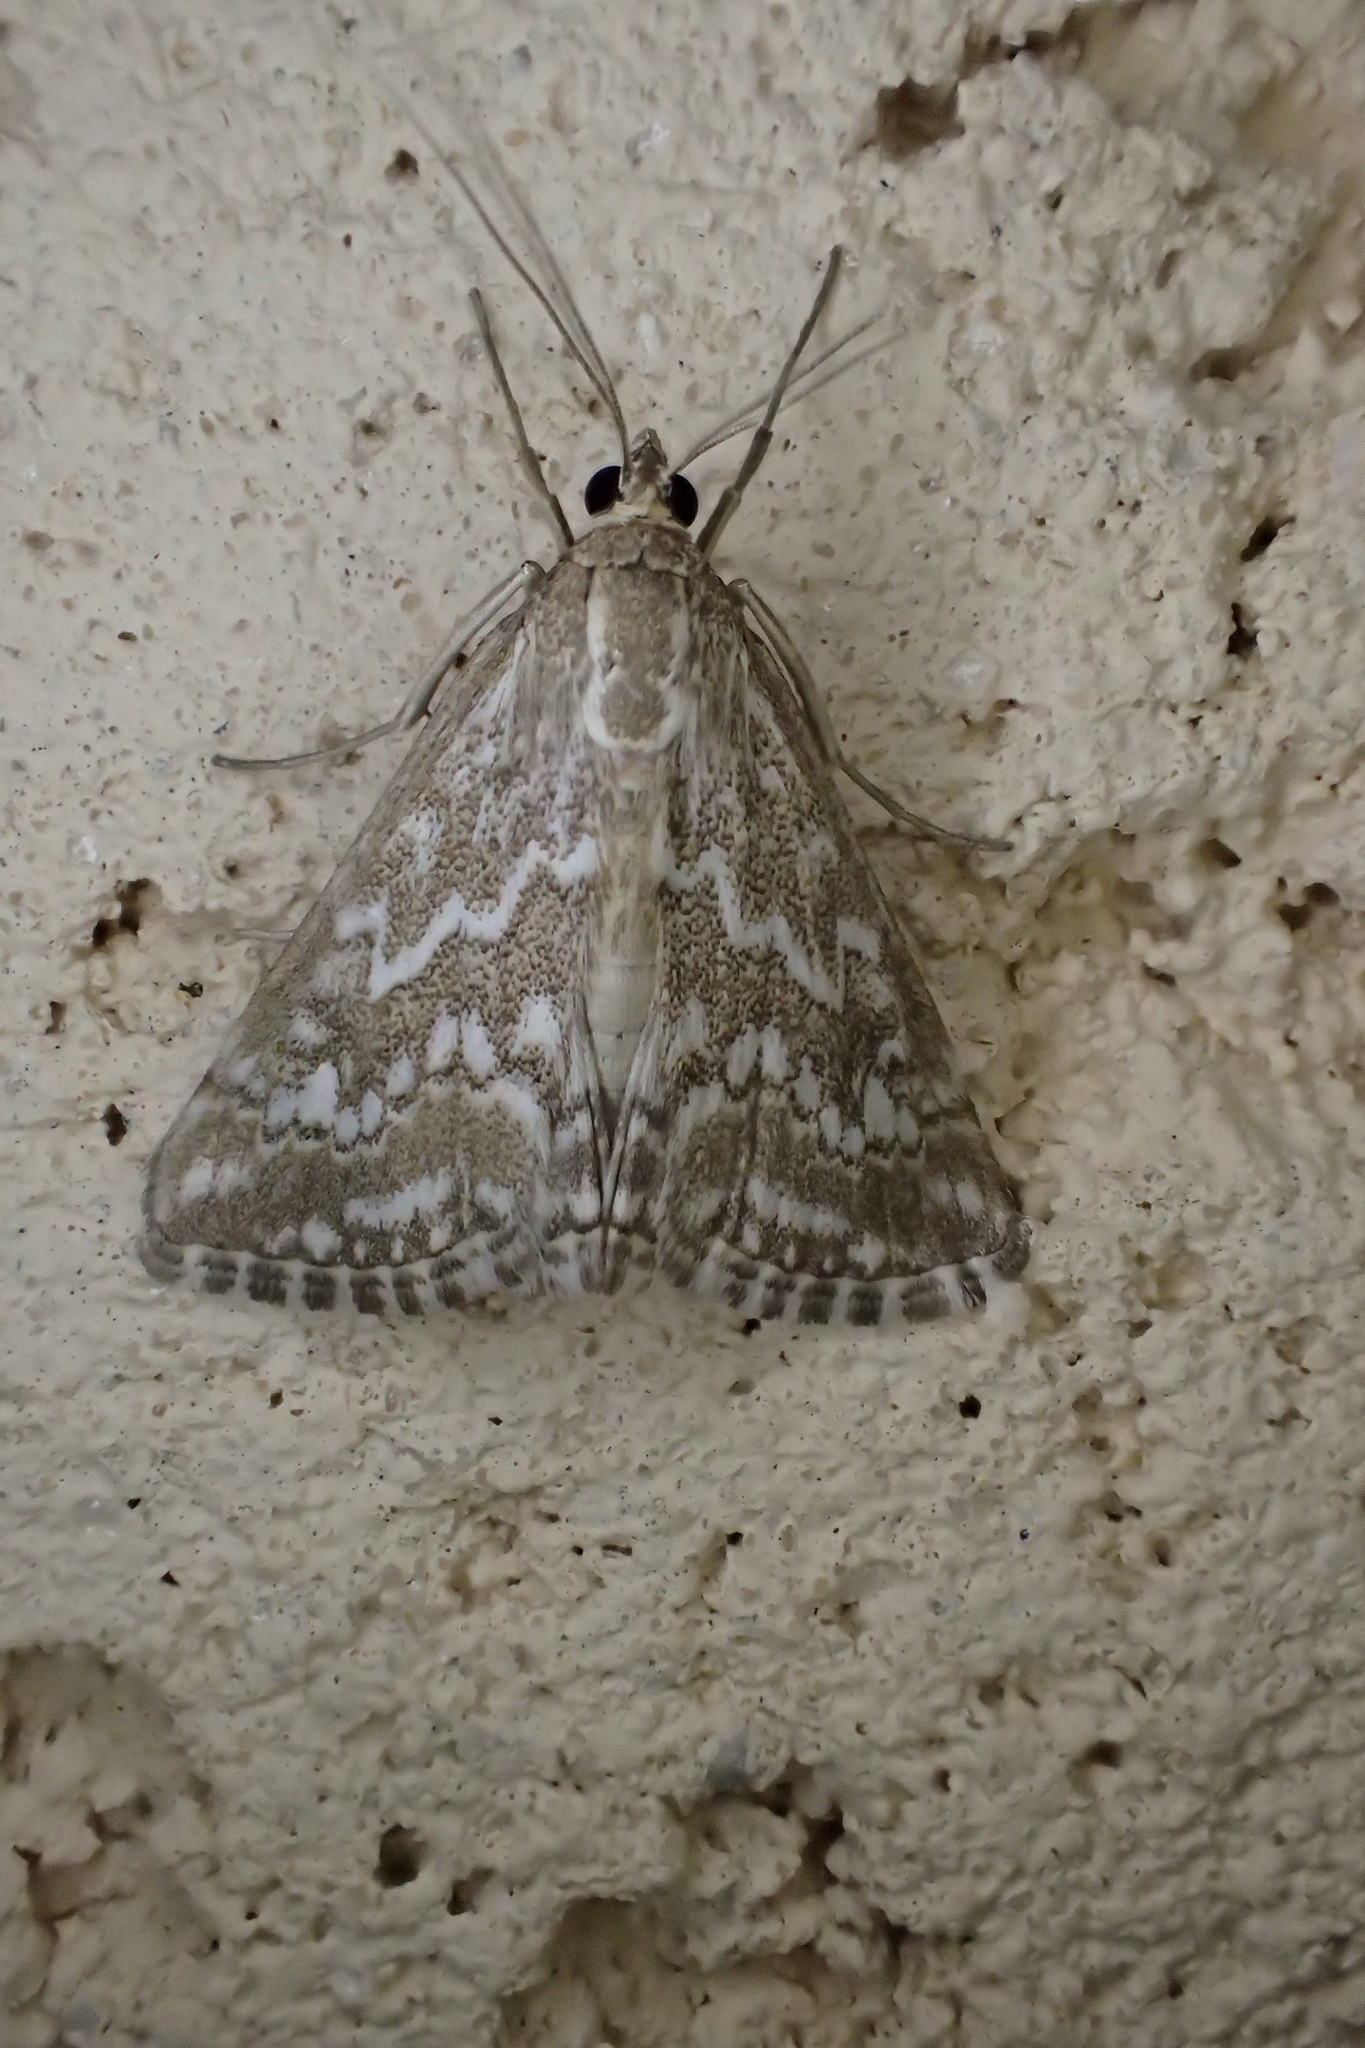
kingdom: Animalia
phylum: Arthropoda
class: Insecta
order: Lepidoptera
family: Crambidae
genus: Evergestis
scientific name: Evergestis frumentalis
